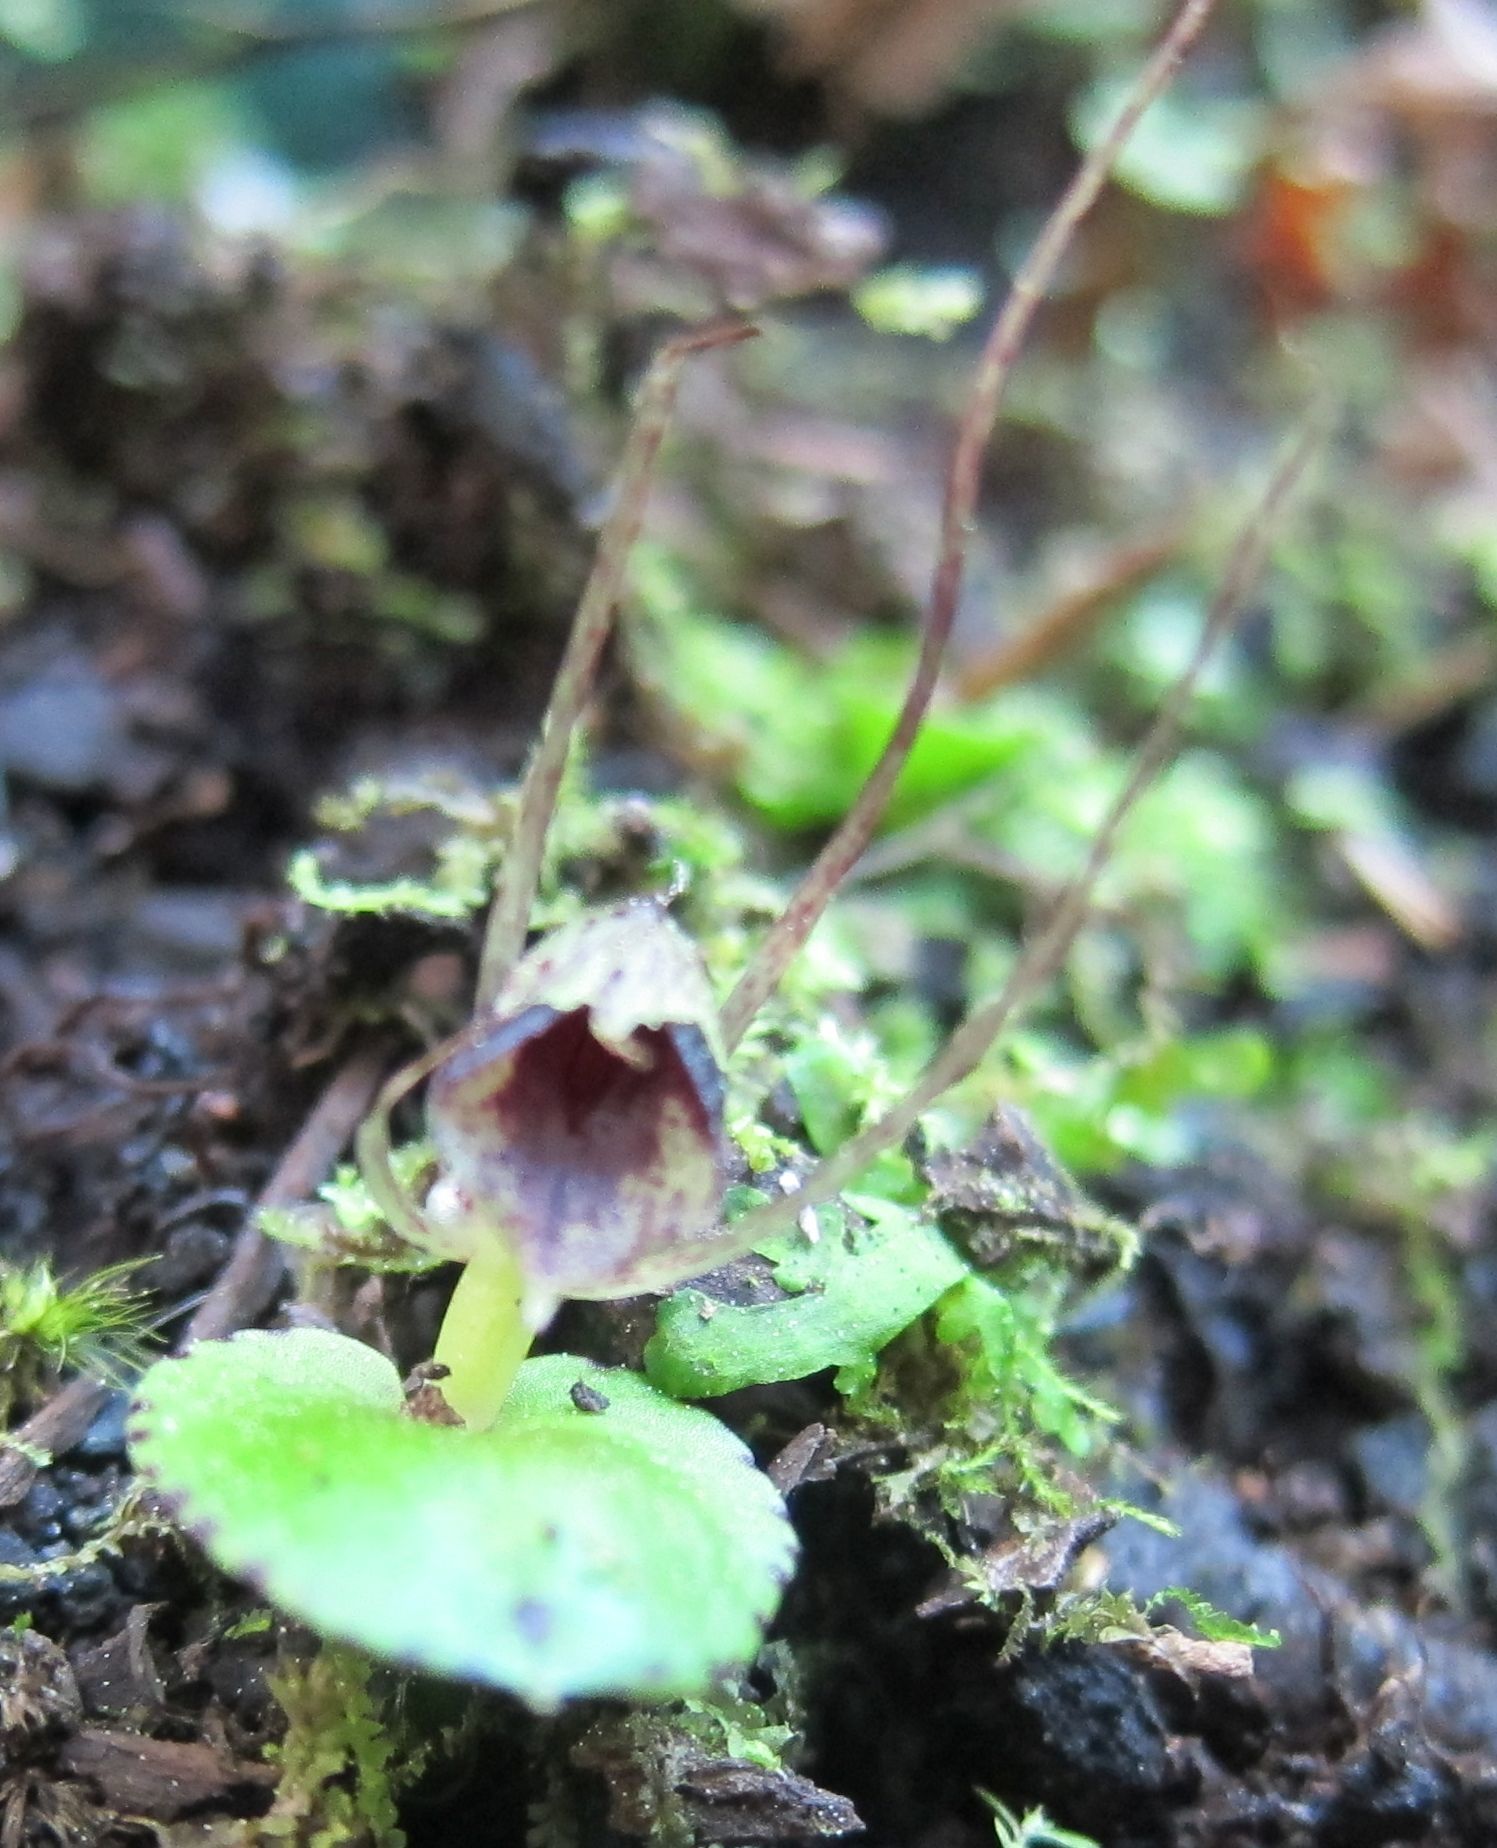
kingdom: Plantae
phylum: Tracheophyta
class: Liliopsida
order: Asparagales
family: Orchidaceae
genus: Corybas
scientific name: Corybas hatchii
